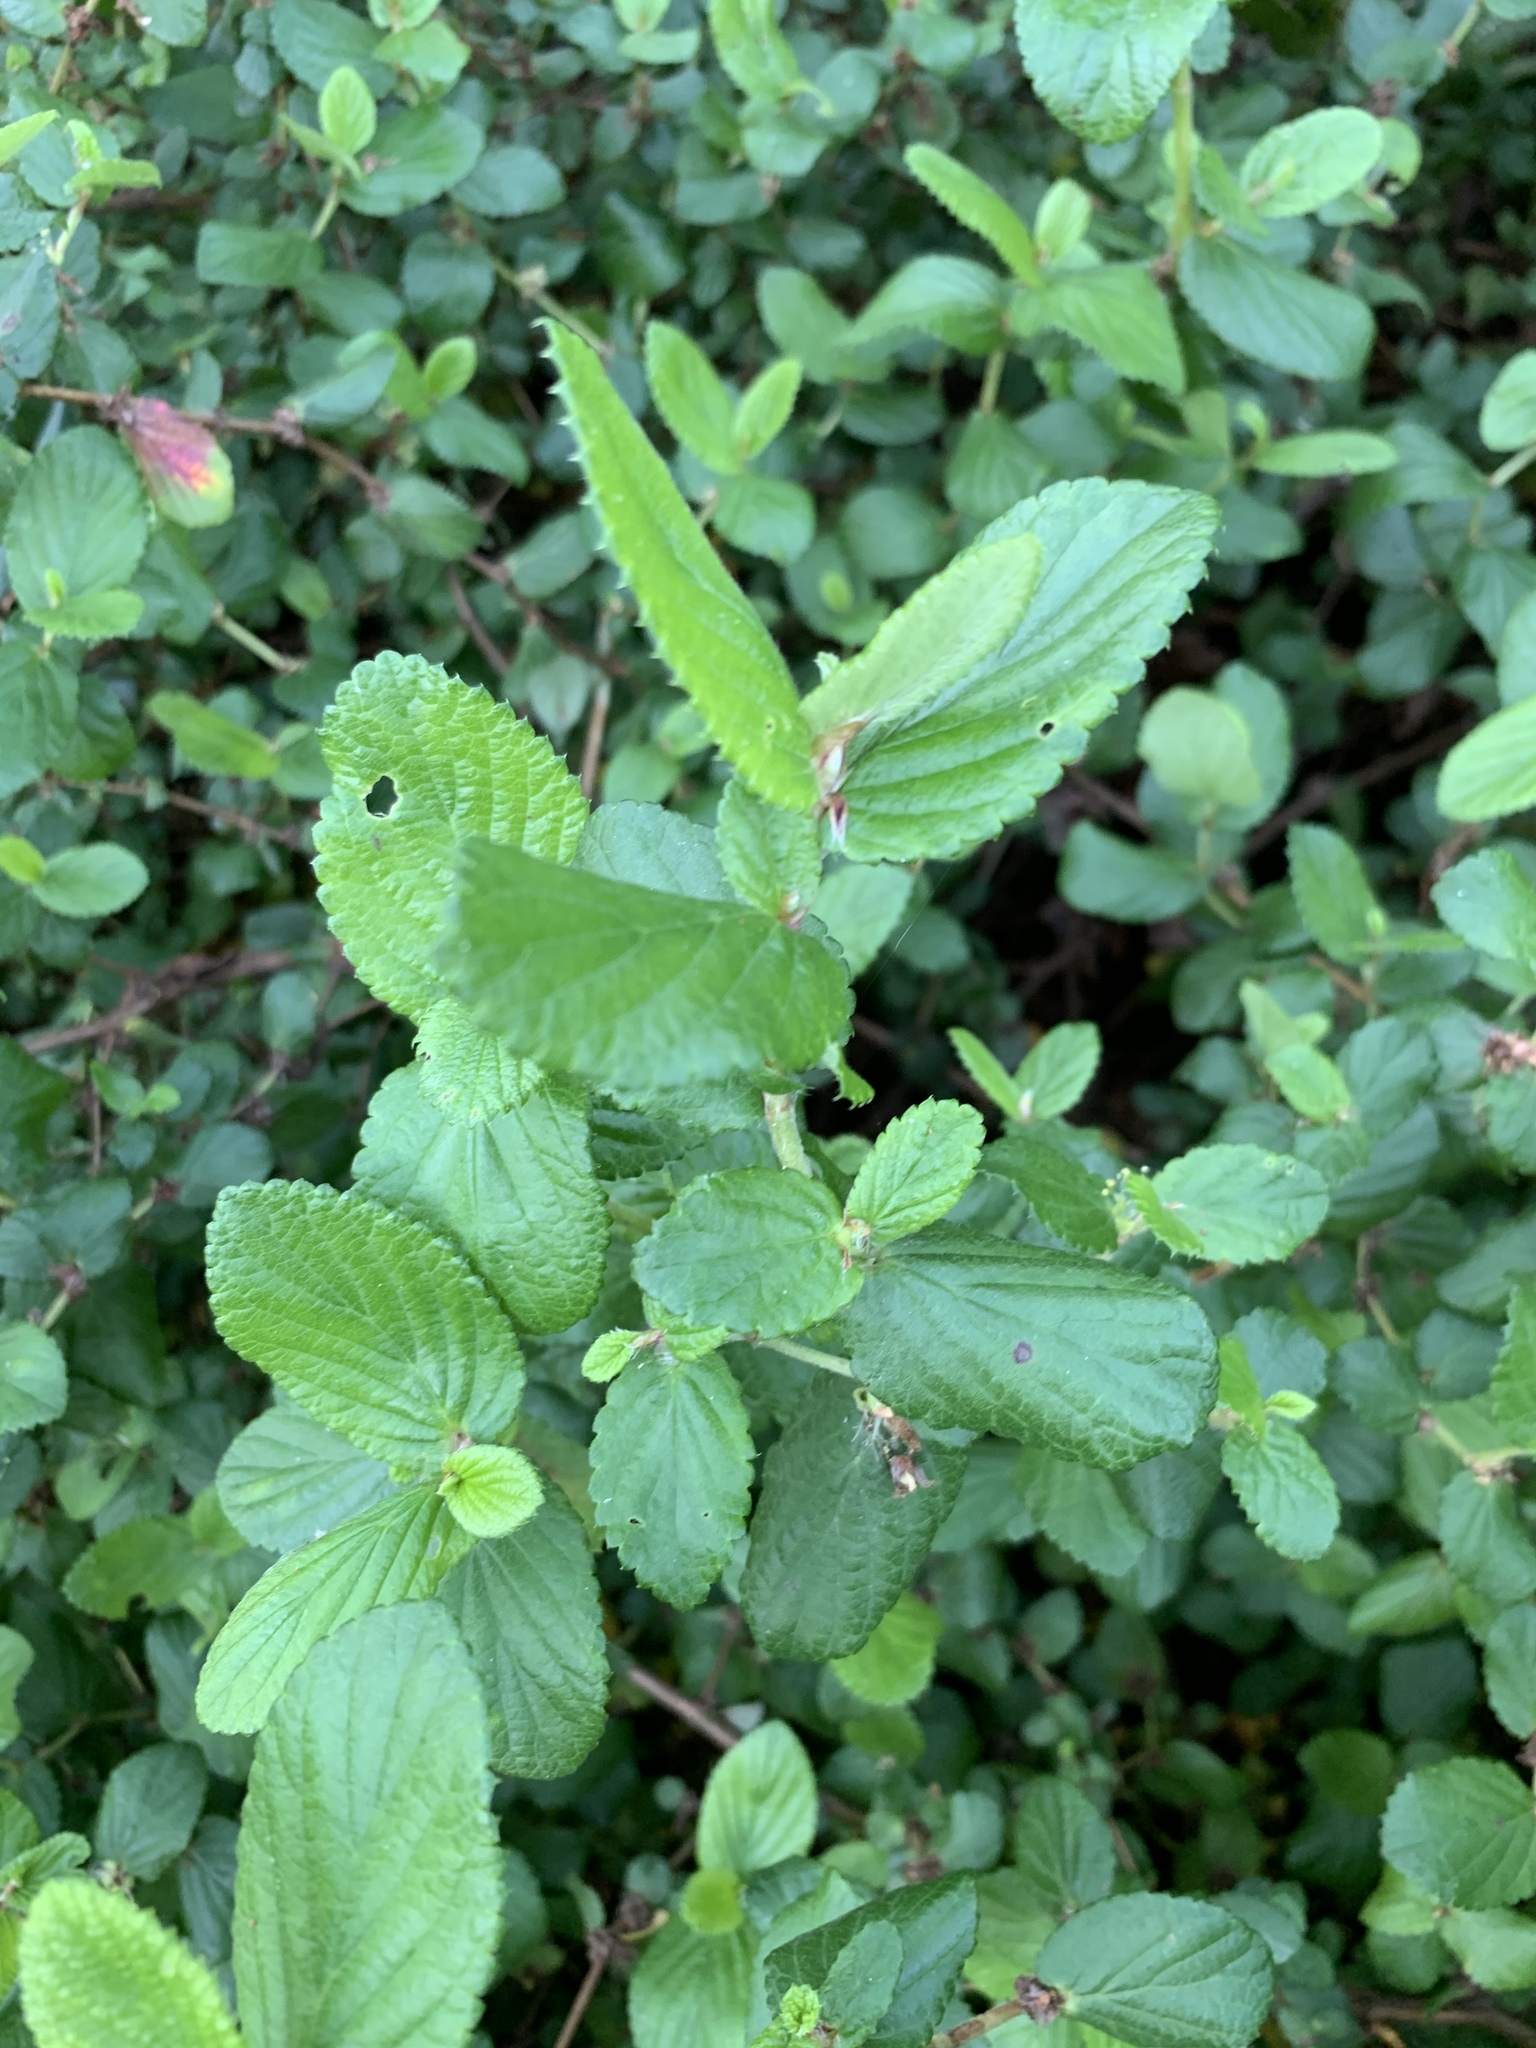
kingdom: Plantae
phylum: Tracheophyta
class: Magnoliopsida
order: Rosales
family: Rosaceae
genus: Cliffortia
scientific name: Cliffortia odorata
